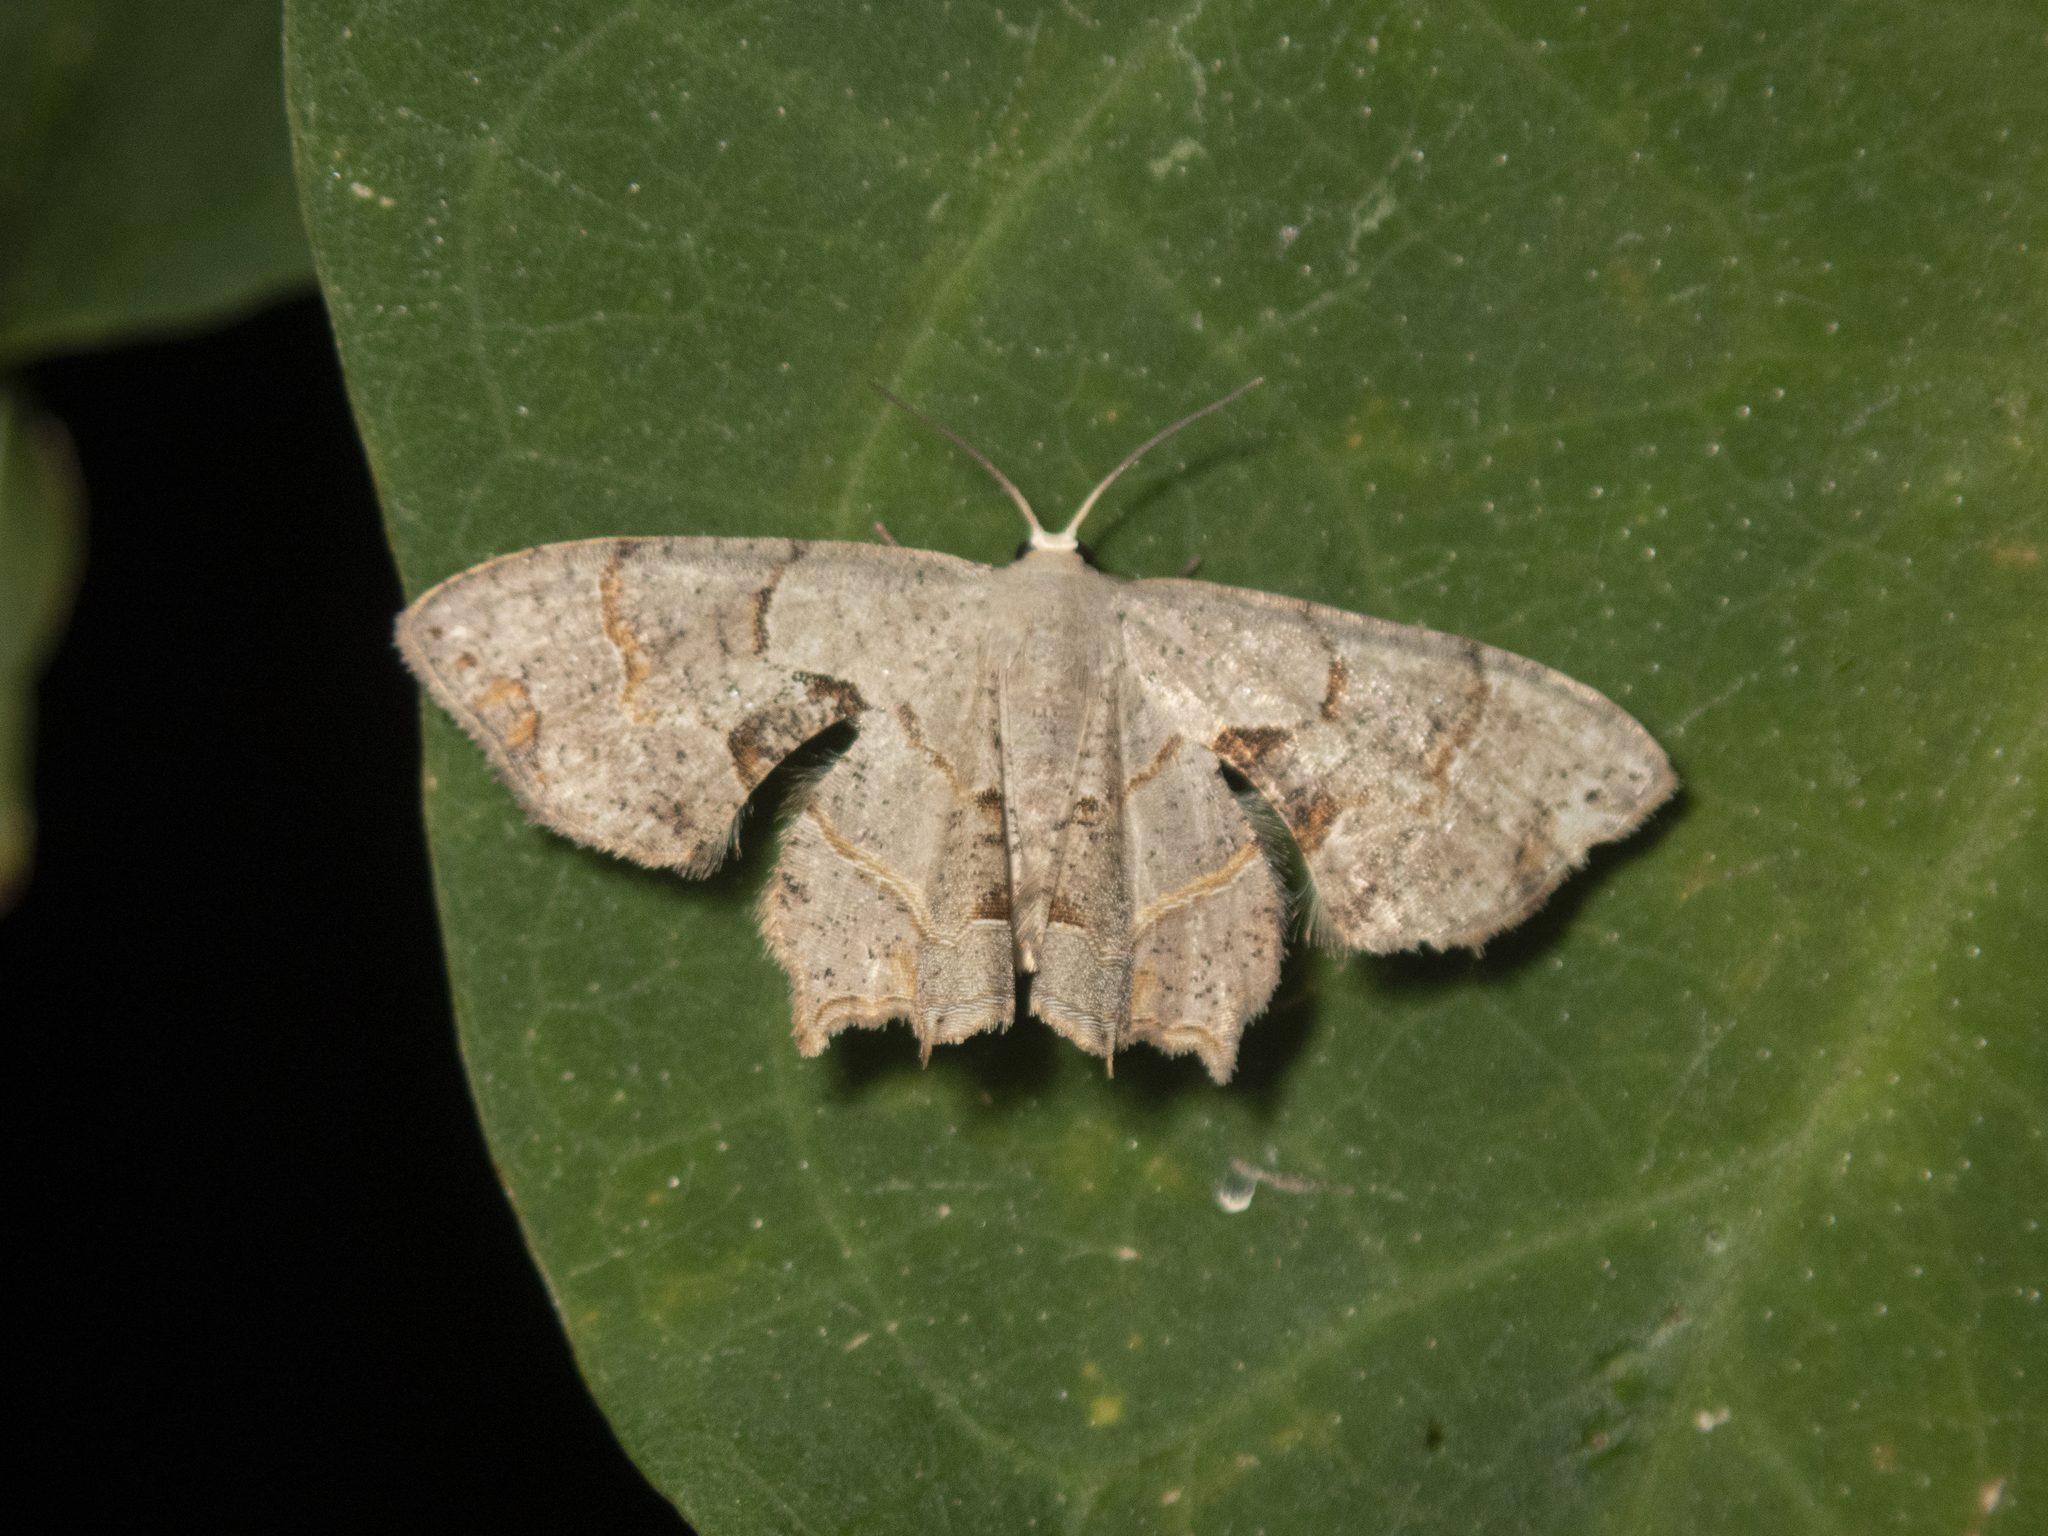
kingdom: Animalia
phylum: Arthropoda
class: Insecta
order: Lepidoptera
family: Uraniidae
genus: Dysaethria
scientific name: Dysaethria flavistriga
